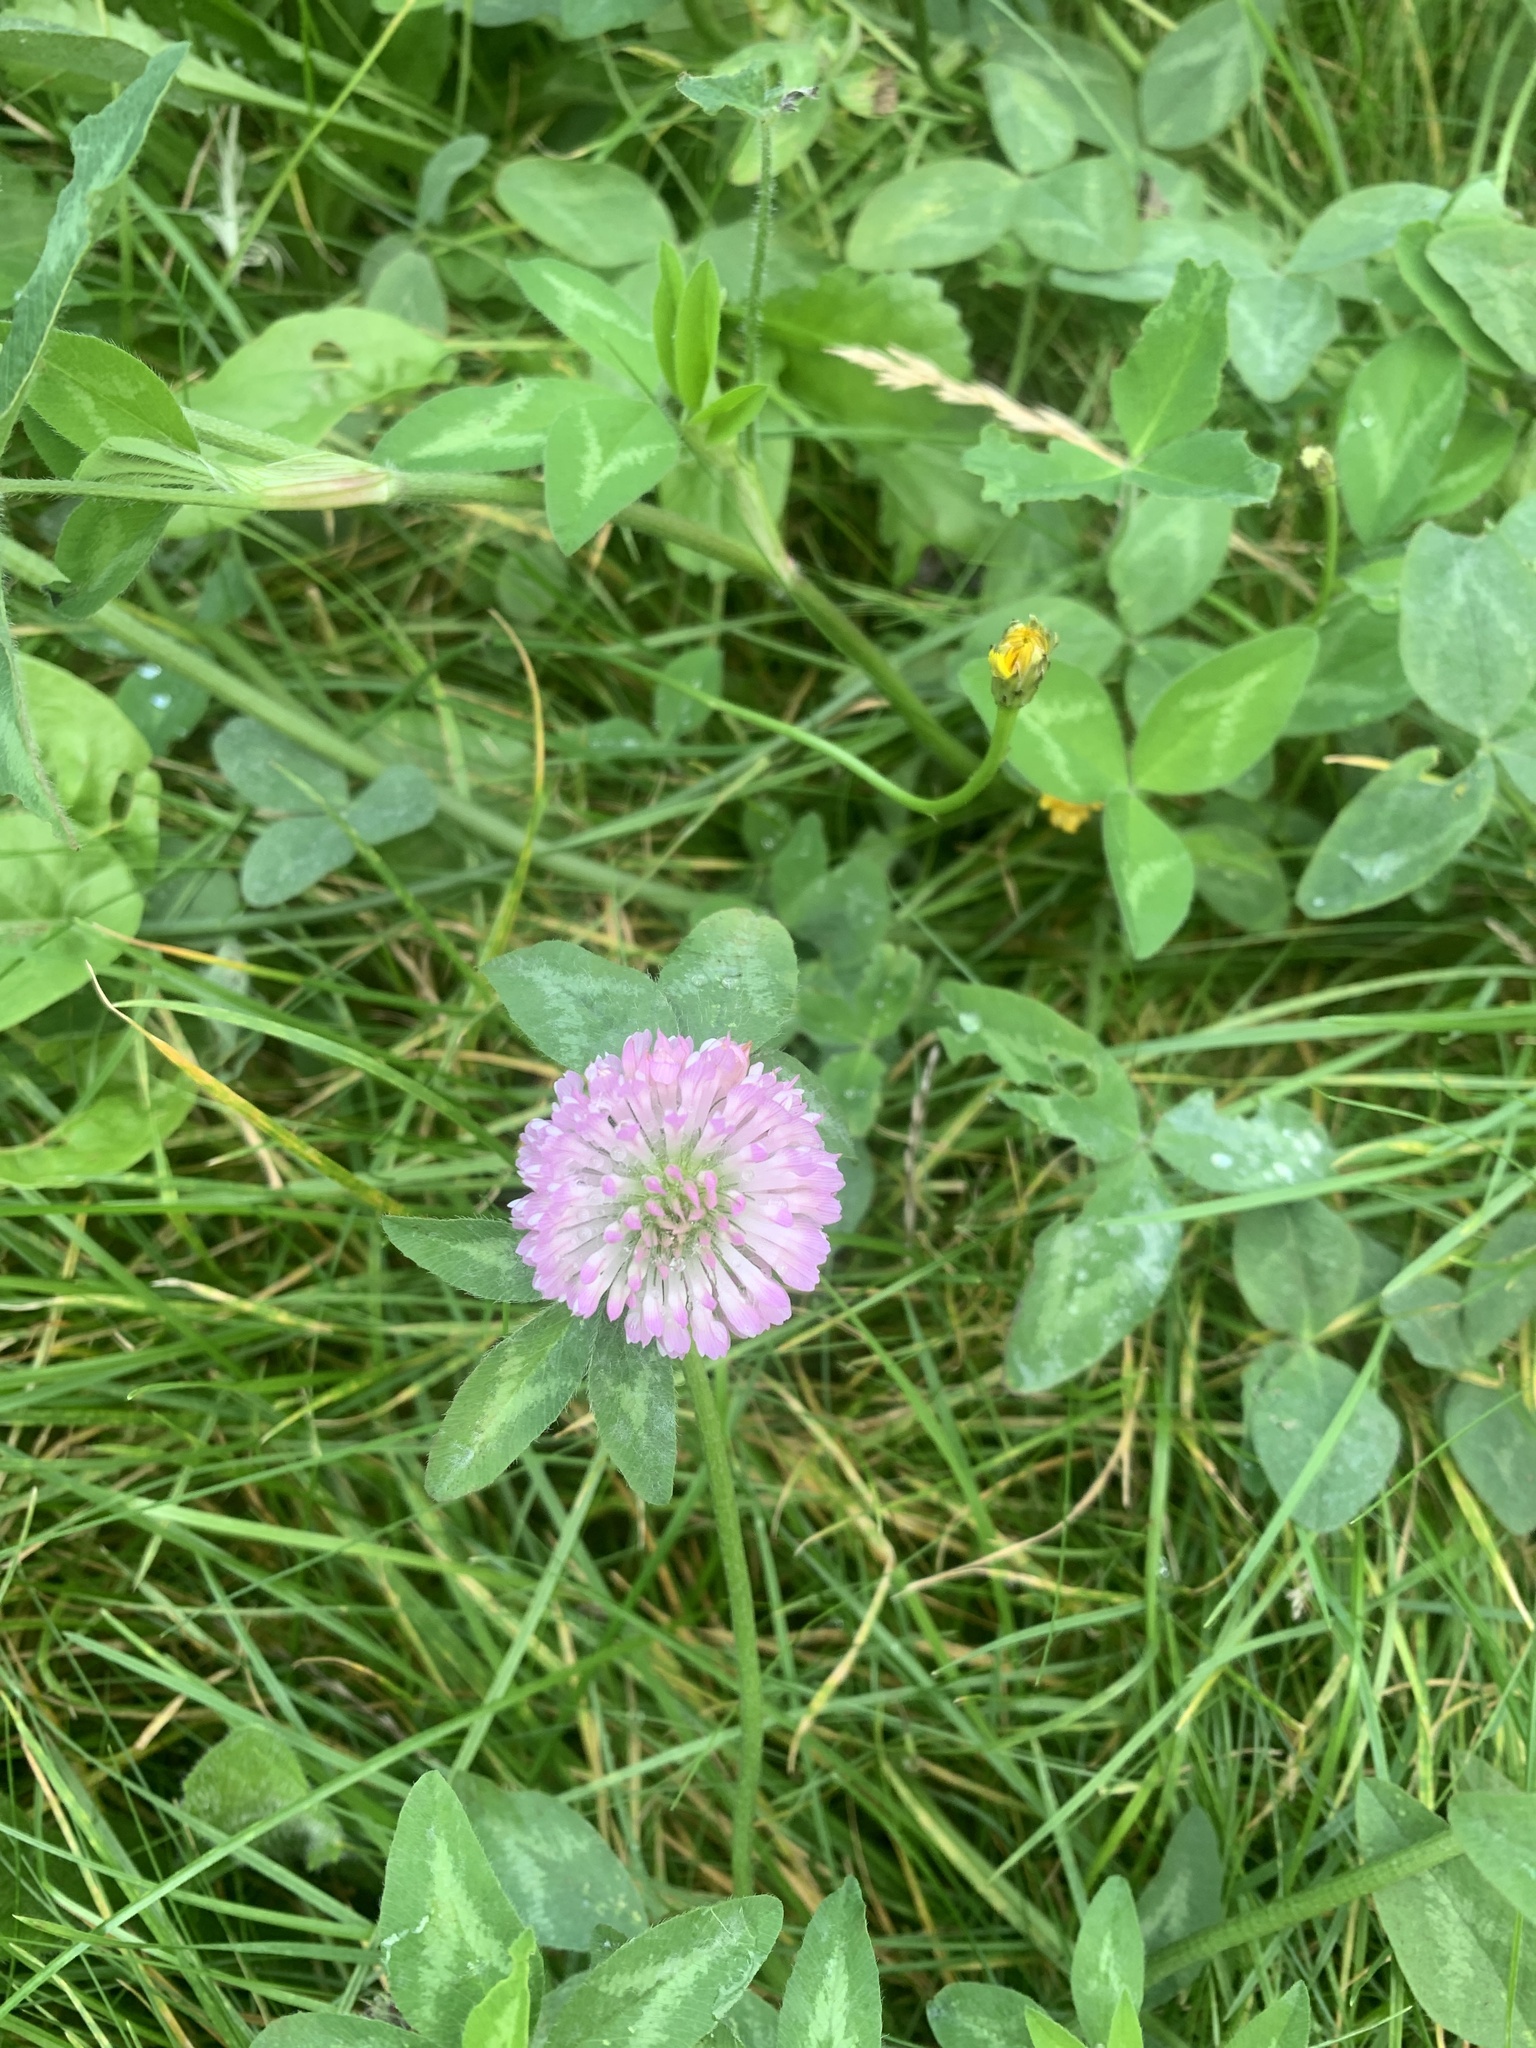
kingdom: Plantae
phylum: Tracheophyta
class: Magnoliopsida
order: Fabales
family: Fabaceae
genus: Trifolium
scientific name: Trifolium pratense
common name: Red clover
